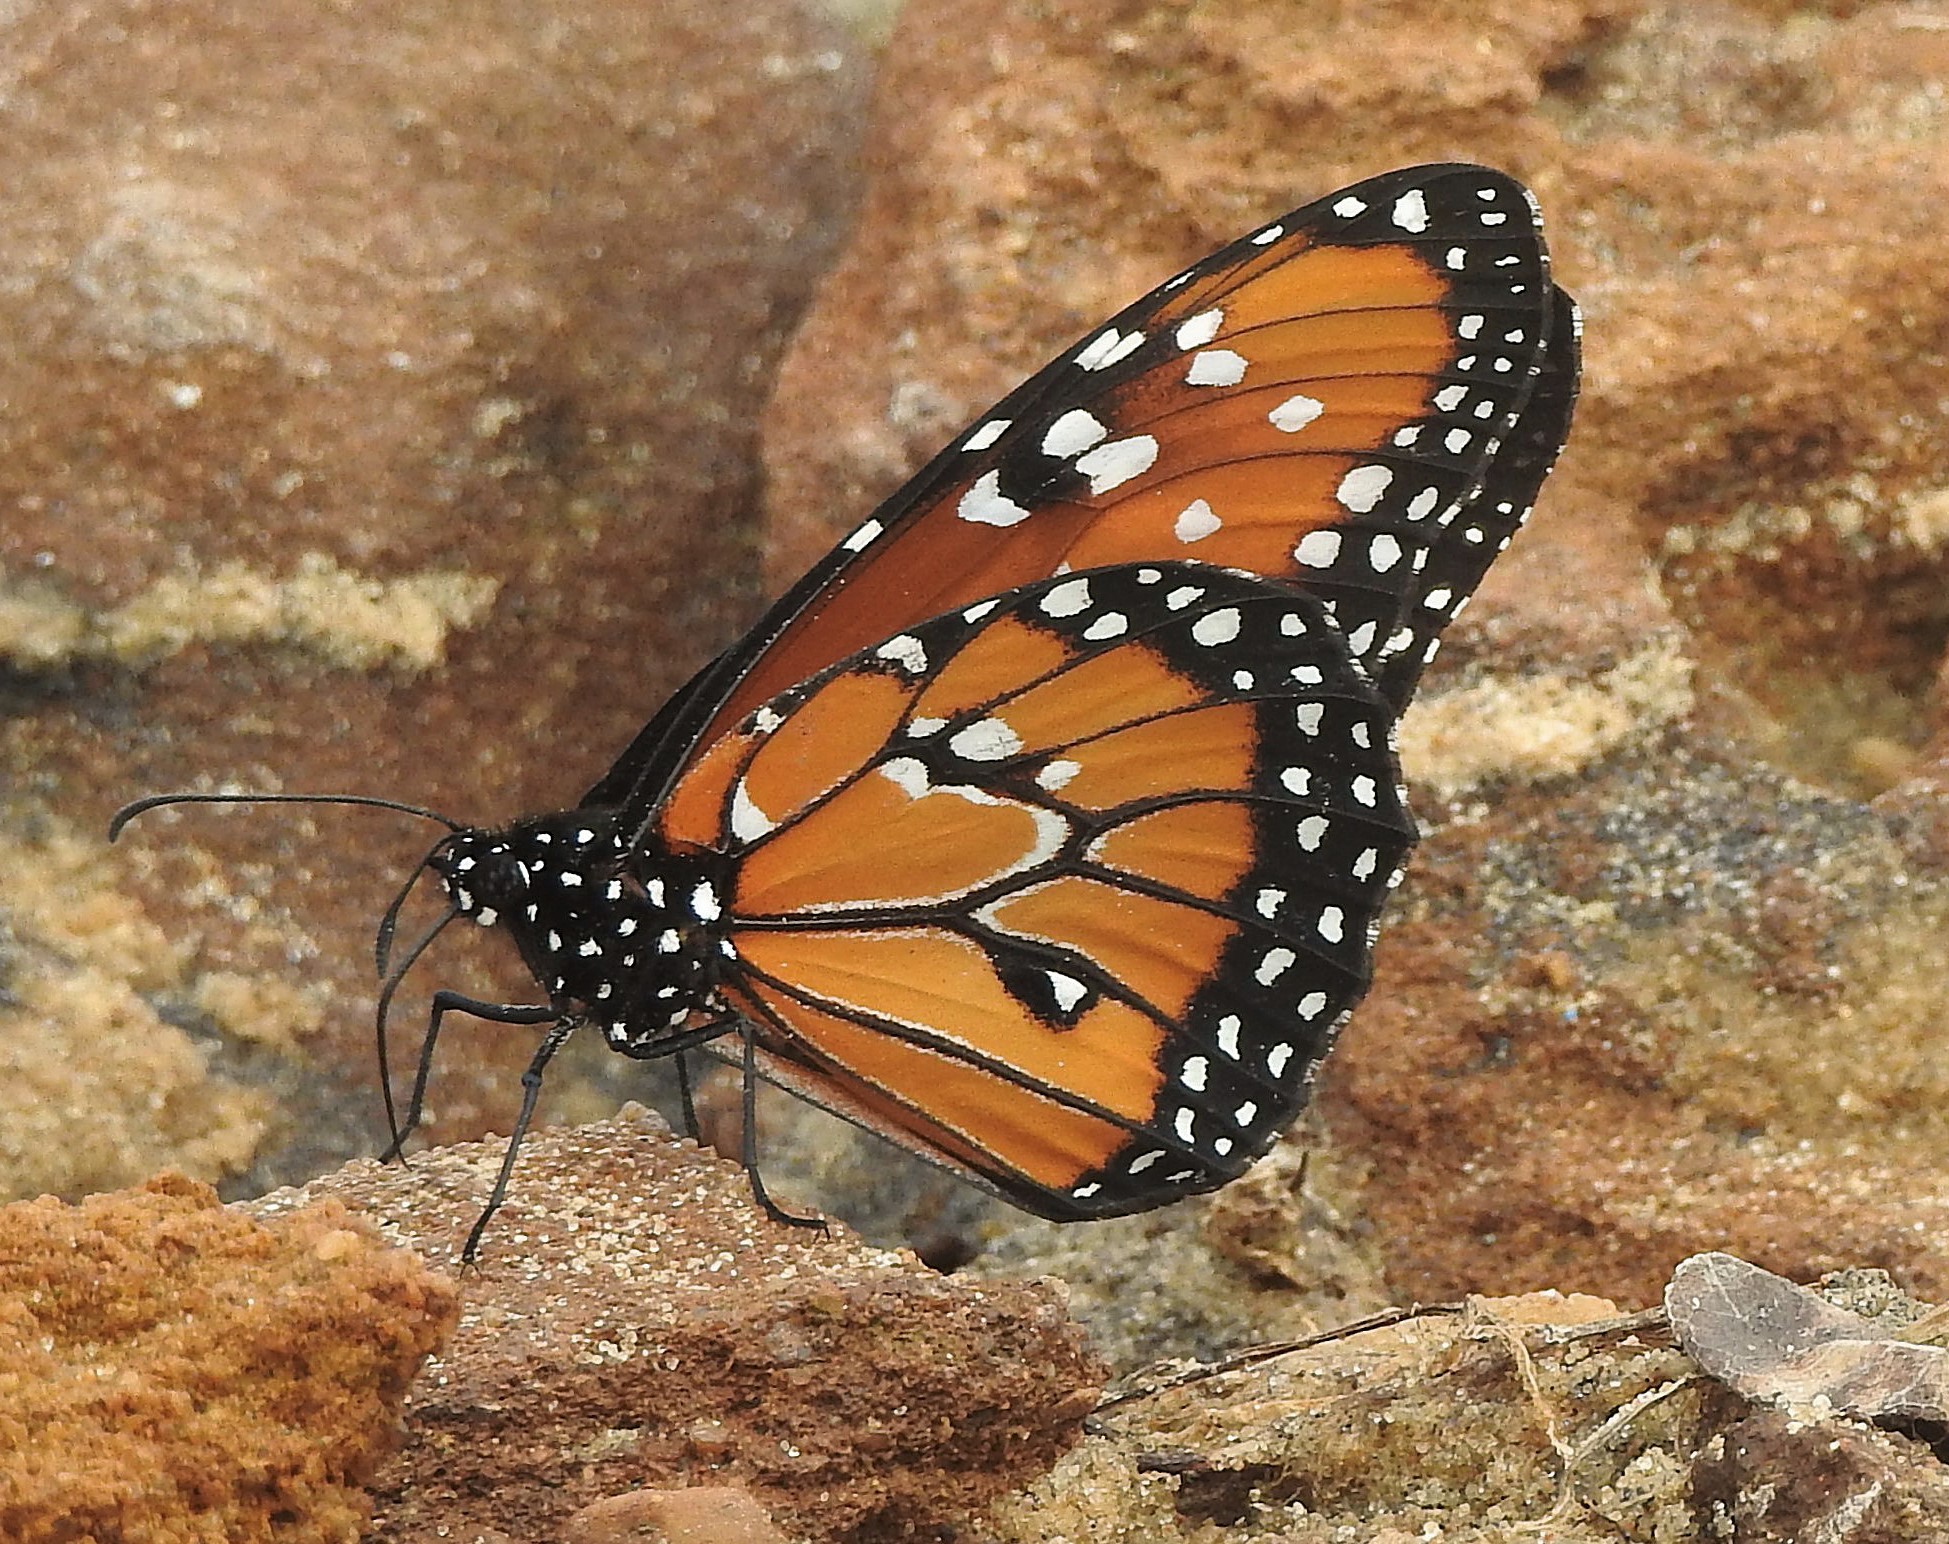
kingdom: Animalia
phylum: Arthropoda
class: Insecta
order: Lepidoptera
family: Nymphalidae
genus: Danaus
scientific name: Danaus gilippus
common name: Queen
